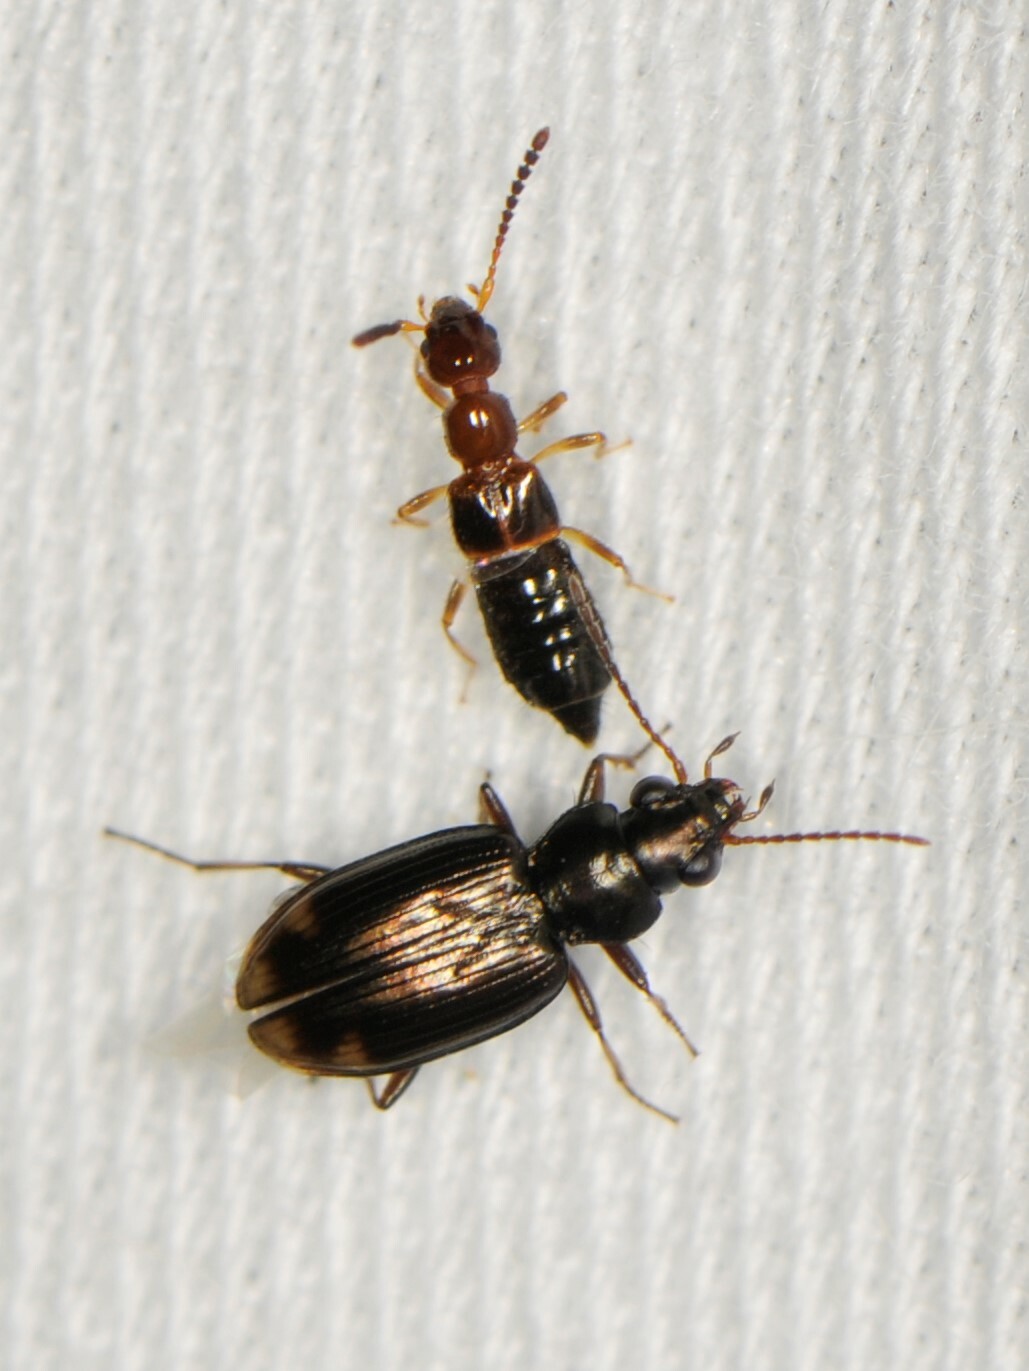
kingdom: Animalia
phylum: Arthropoda
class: Insecta
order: Coleoptera
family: Staphylinidae
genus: Apocellus
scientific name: Apocellus
